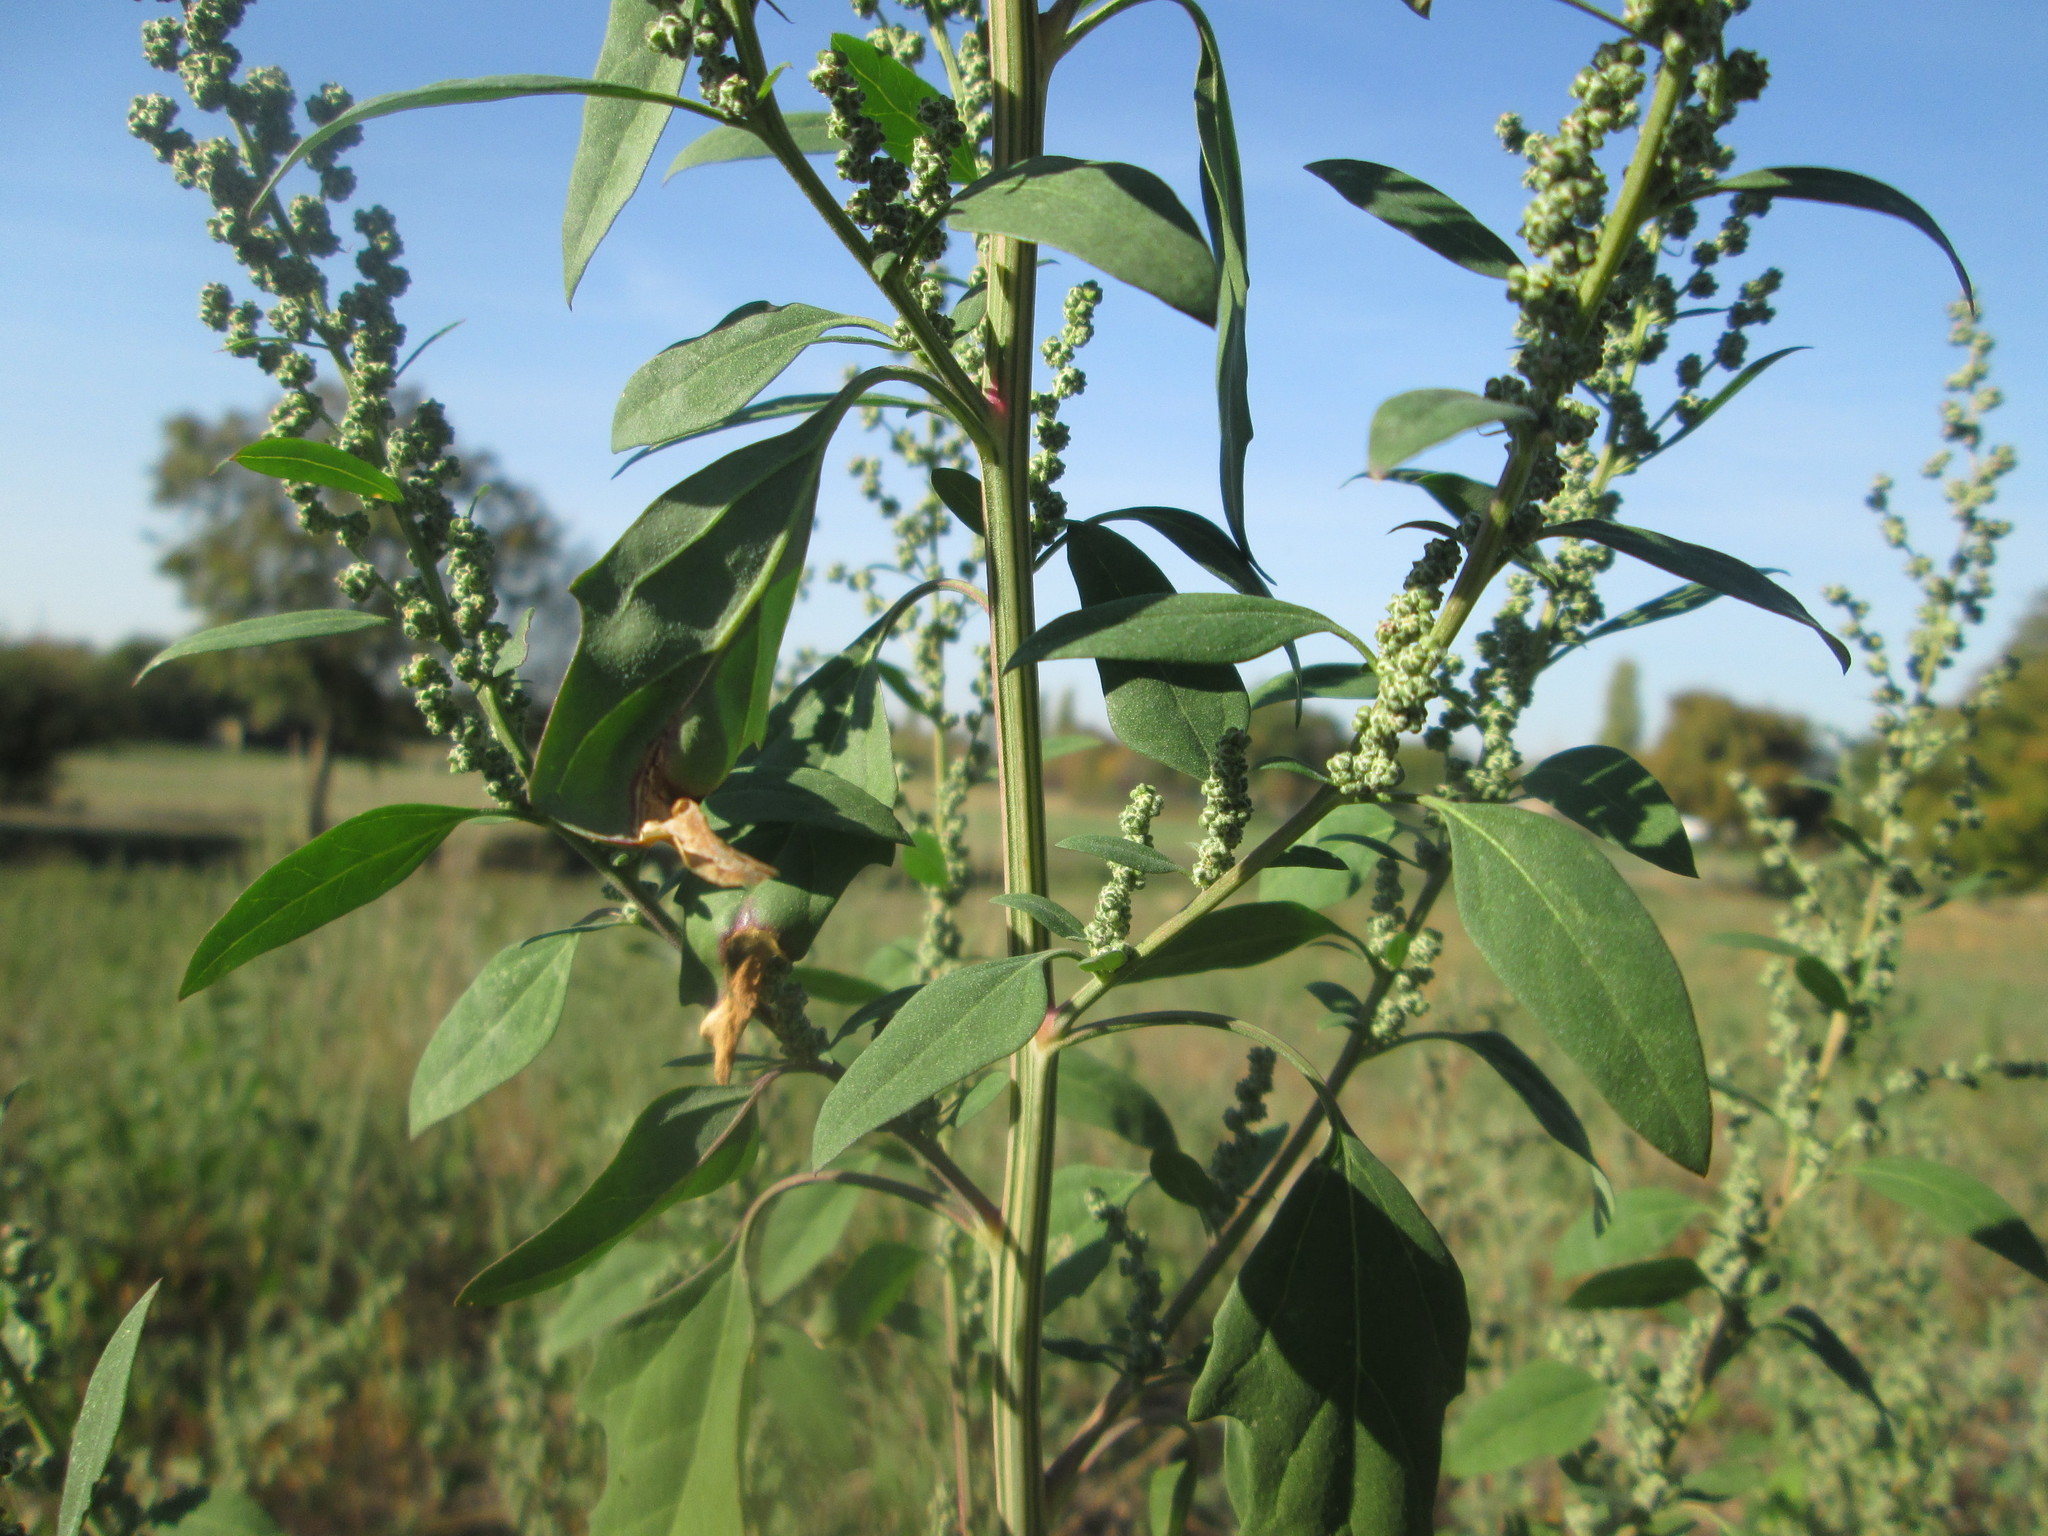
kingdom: Plantae
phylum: Tracheophyta
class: Magnoliopsida
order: Caryophyllales
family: Amaranthaceae
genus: Chenopodium
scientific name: Chenopodium album
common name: Fat-hen
